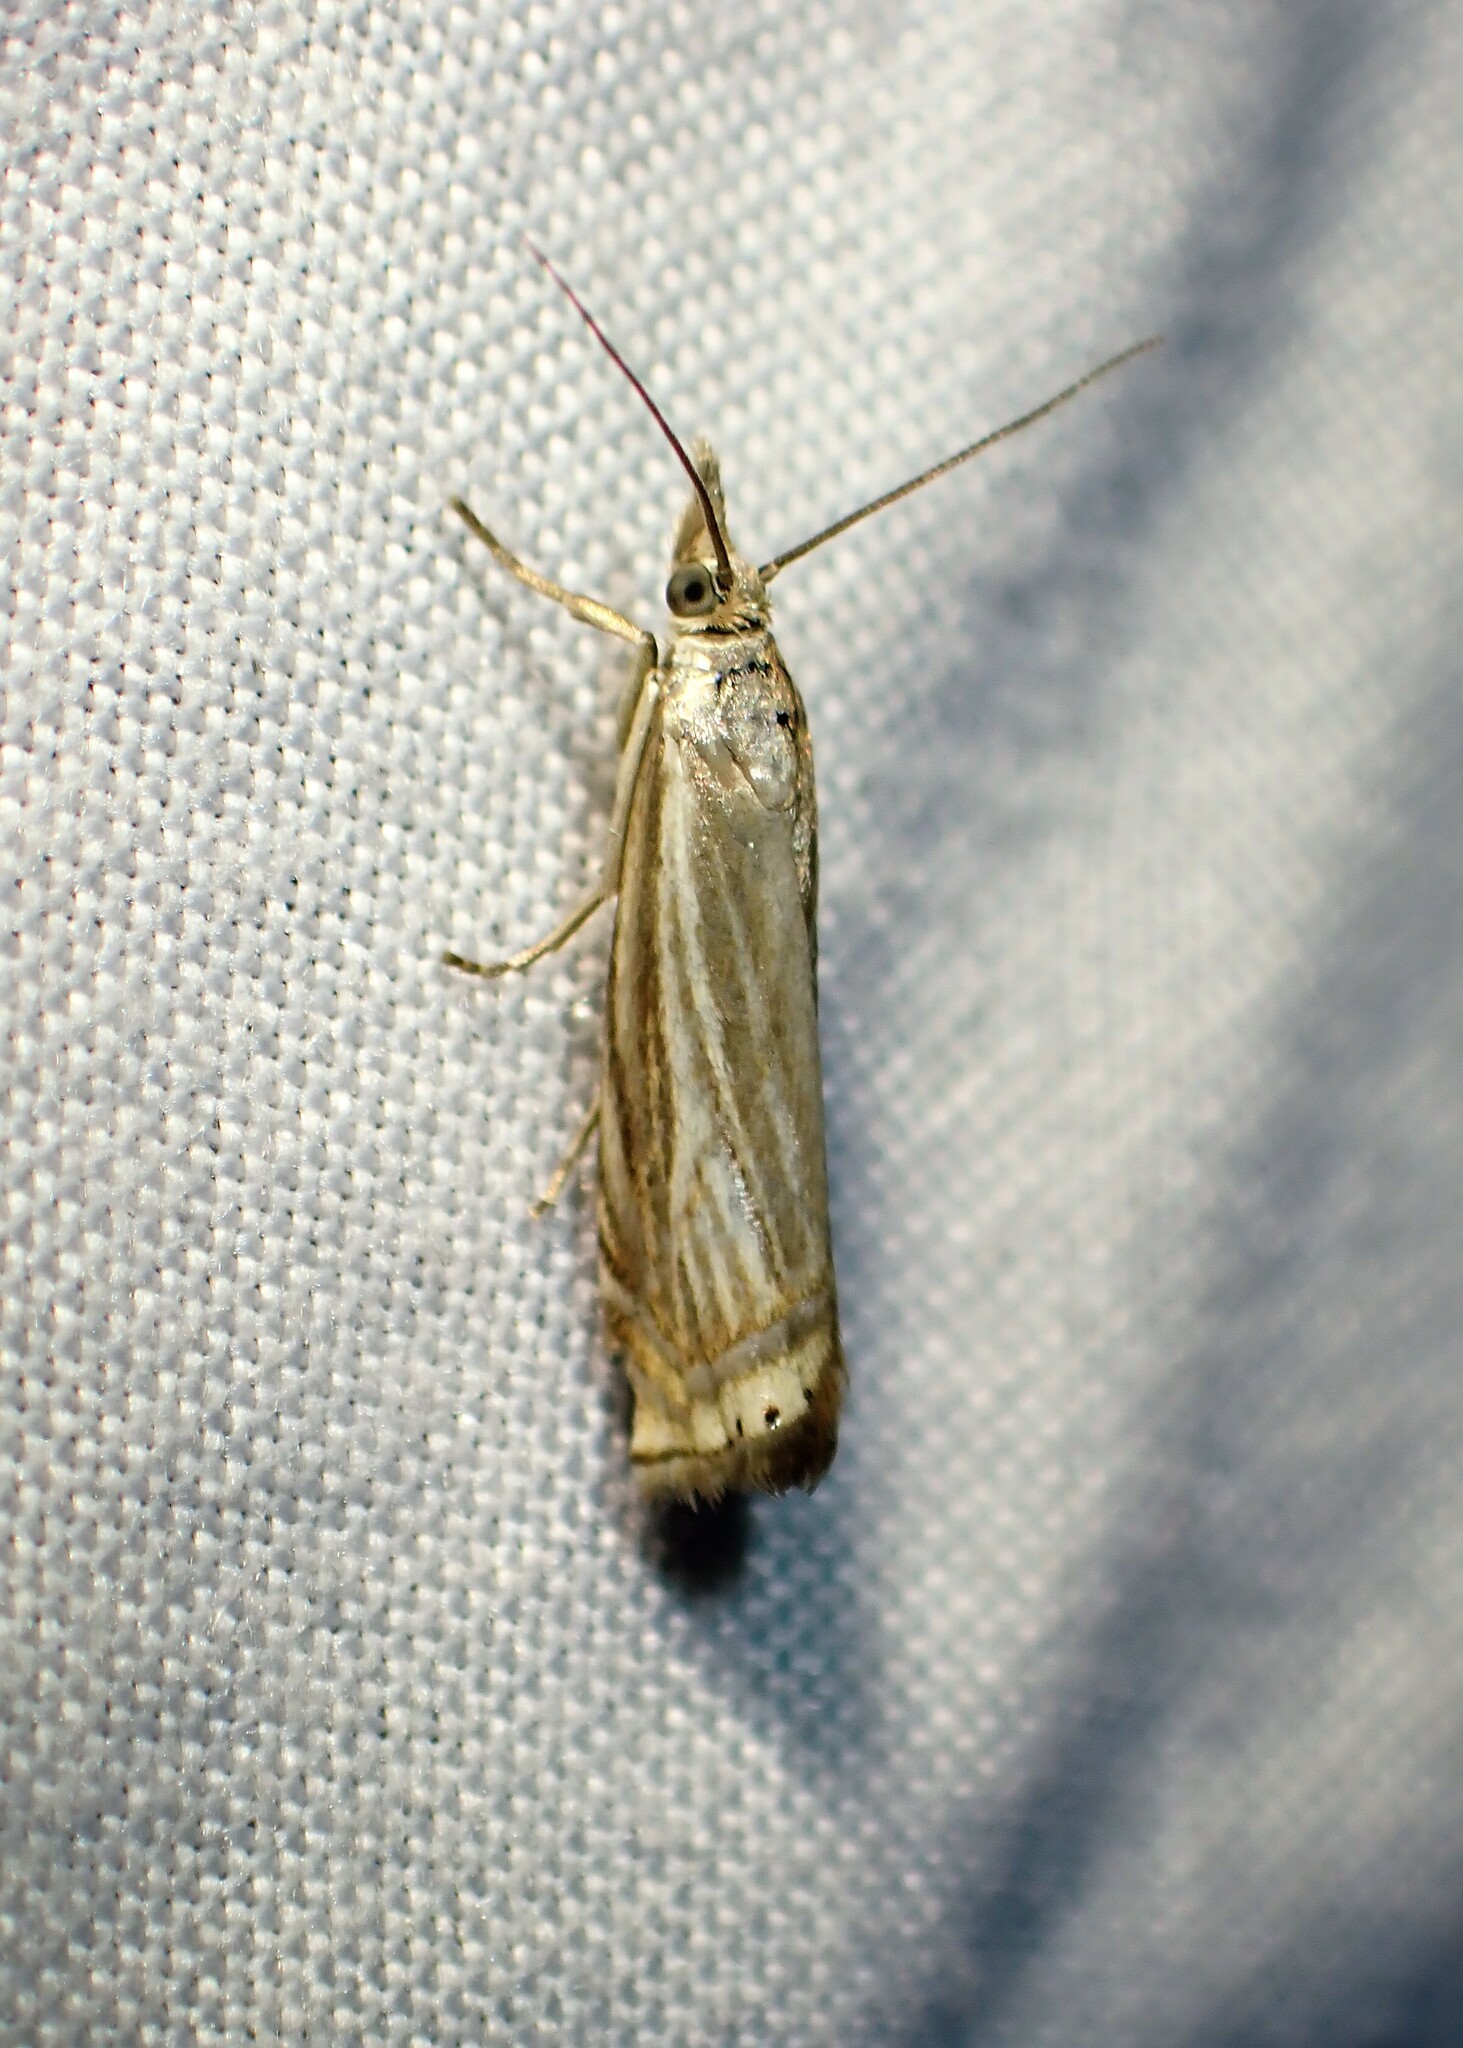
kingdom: Animalia
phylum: Arthropoda
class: Insecta
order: Lepidoptera
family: Crambidae
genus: Chrysoteuchia
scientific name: Chrysoteuchia topiarius
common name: Topiary grass-veneer
